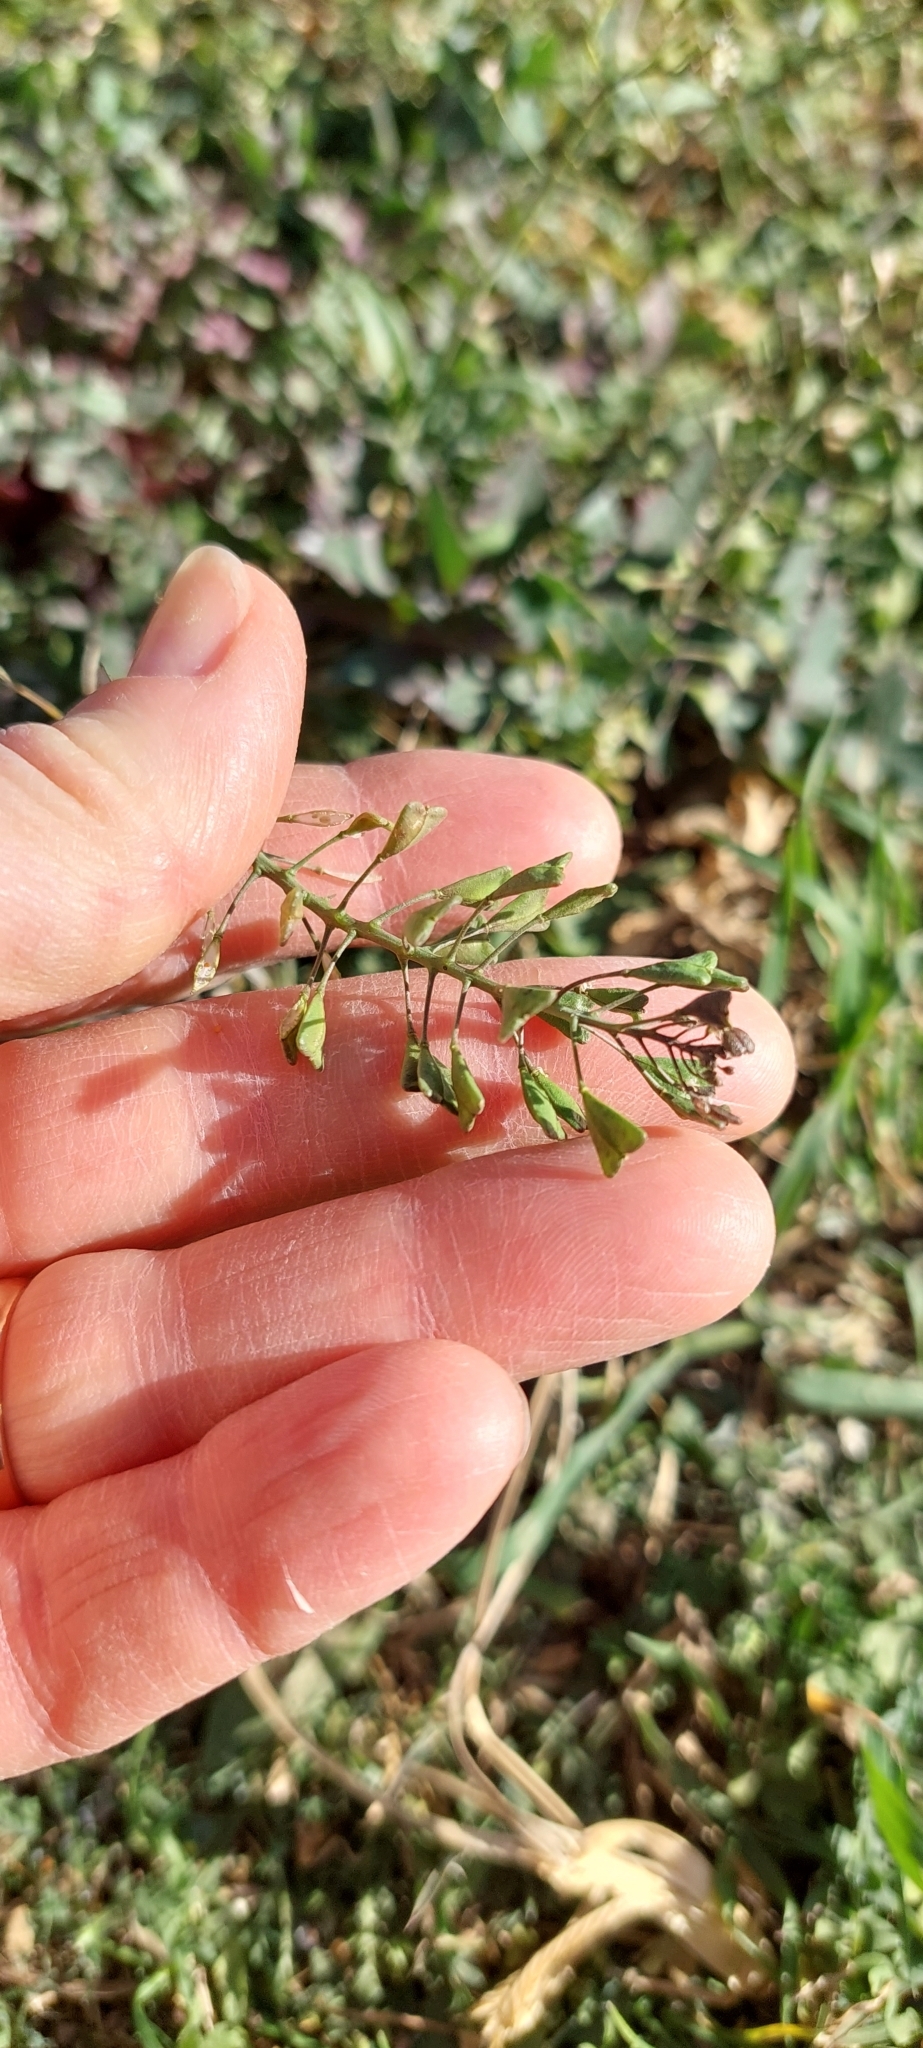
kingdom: Plantae
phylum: Tracheophyta
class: Magnoliopsida
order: Brassicales
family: Brassicaceae
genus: Capsella
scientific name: Capsella bursa-pastoris
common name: Shepherd's purse
